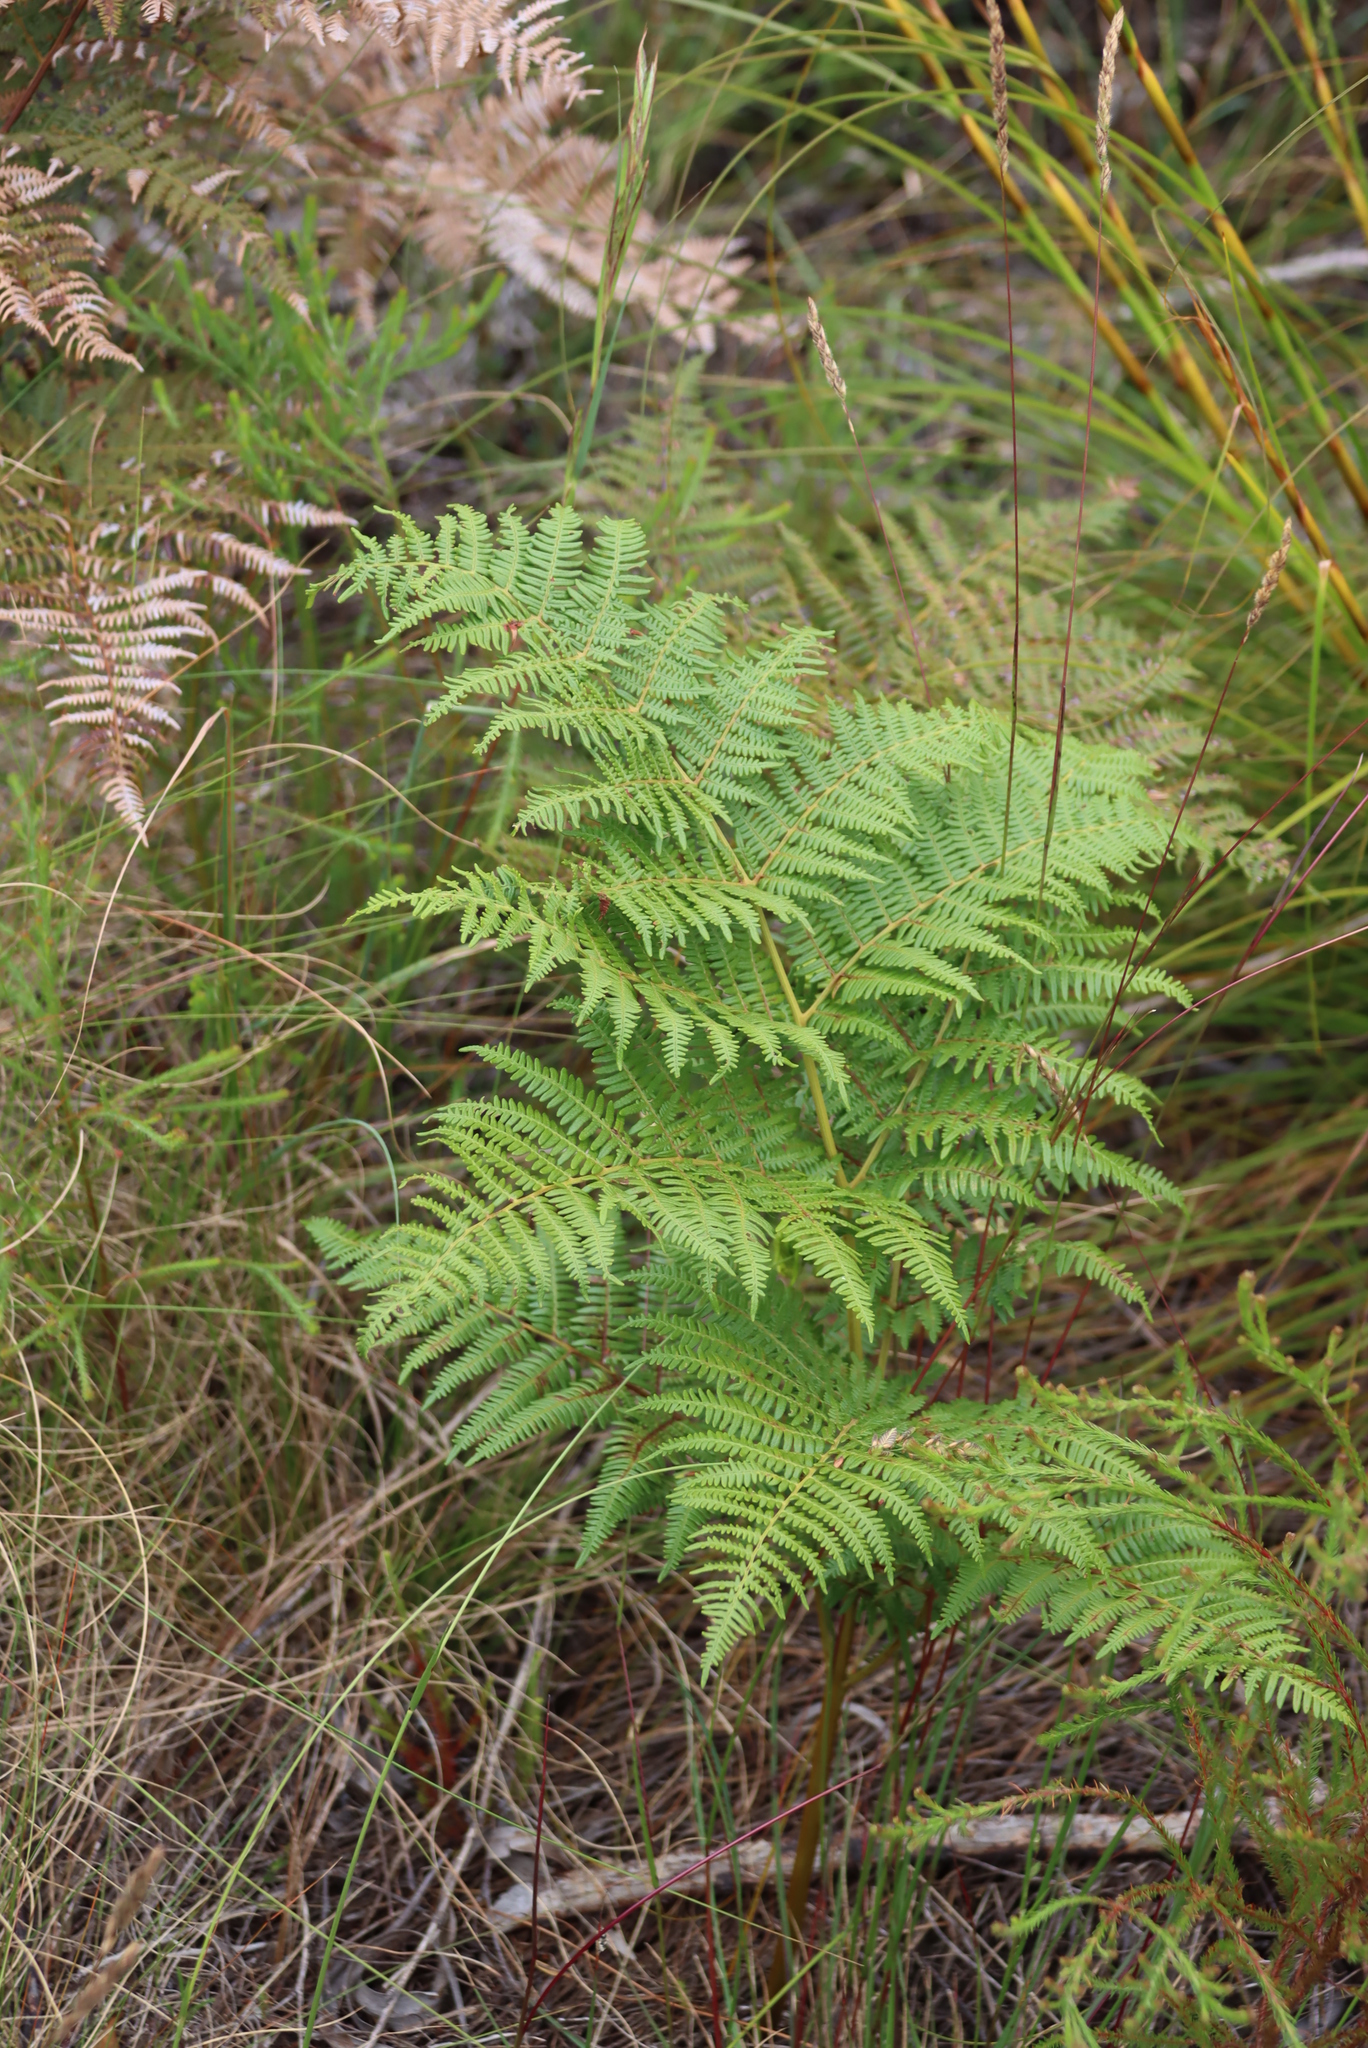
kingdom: Plantae
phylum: Tracheophyta
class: Polypodiopsida
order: Polypodiales
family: Dennstaedtiaceae
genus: Pteridium
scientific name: Pteridium aquilinum
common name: Bracken
